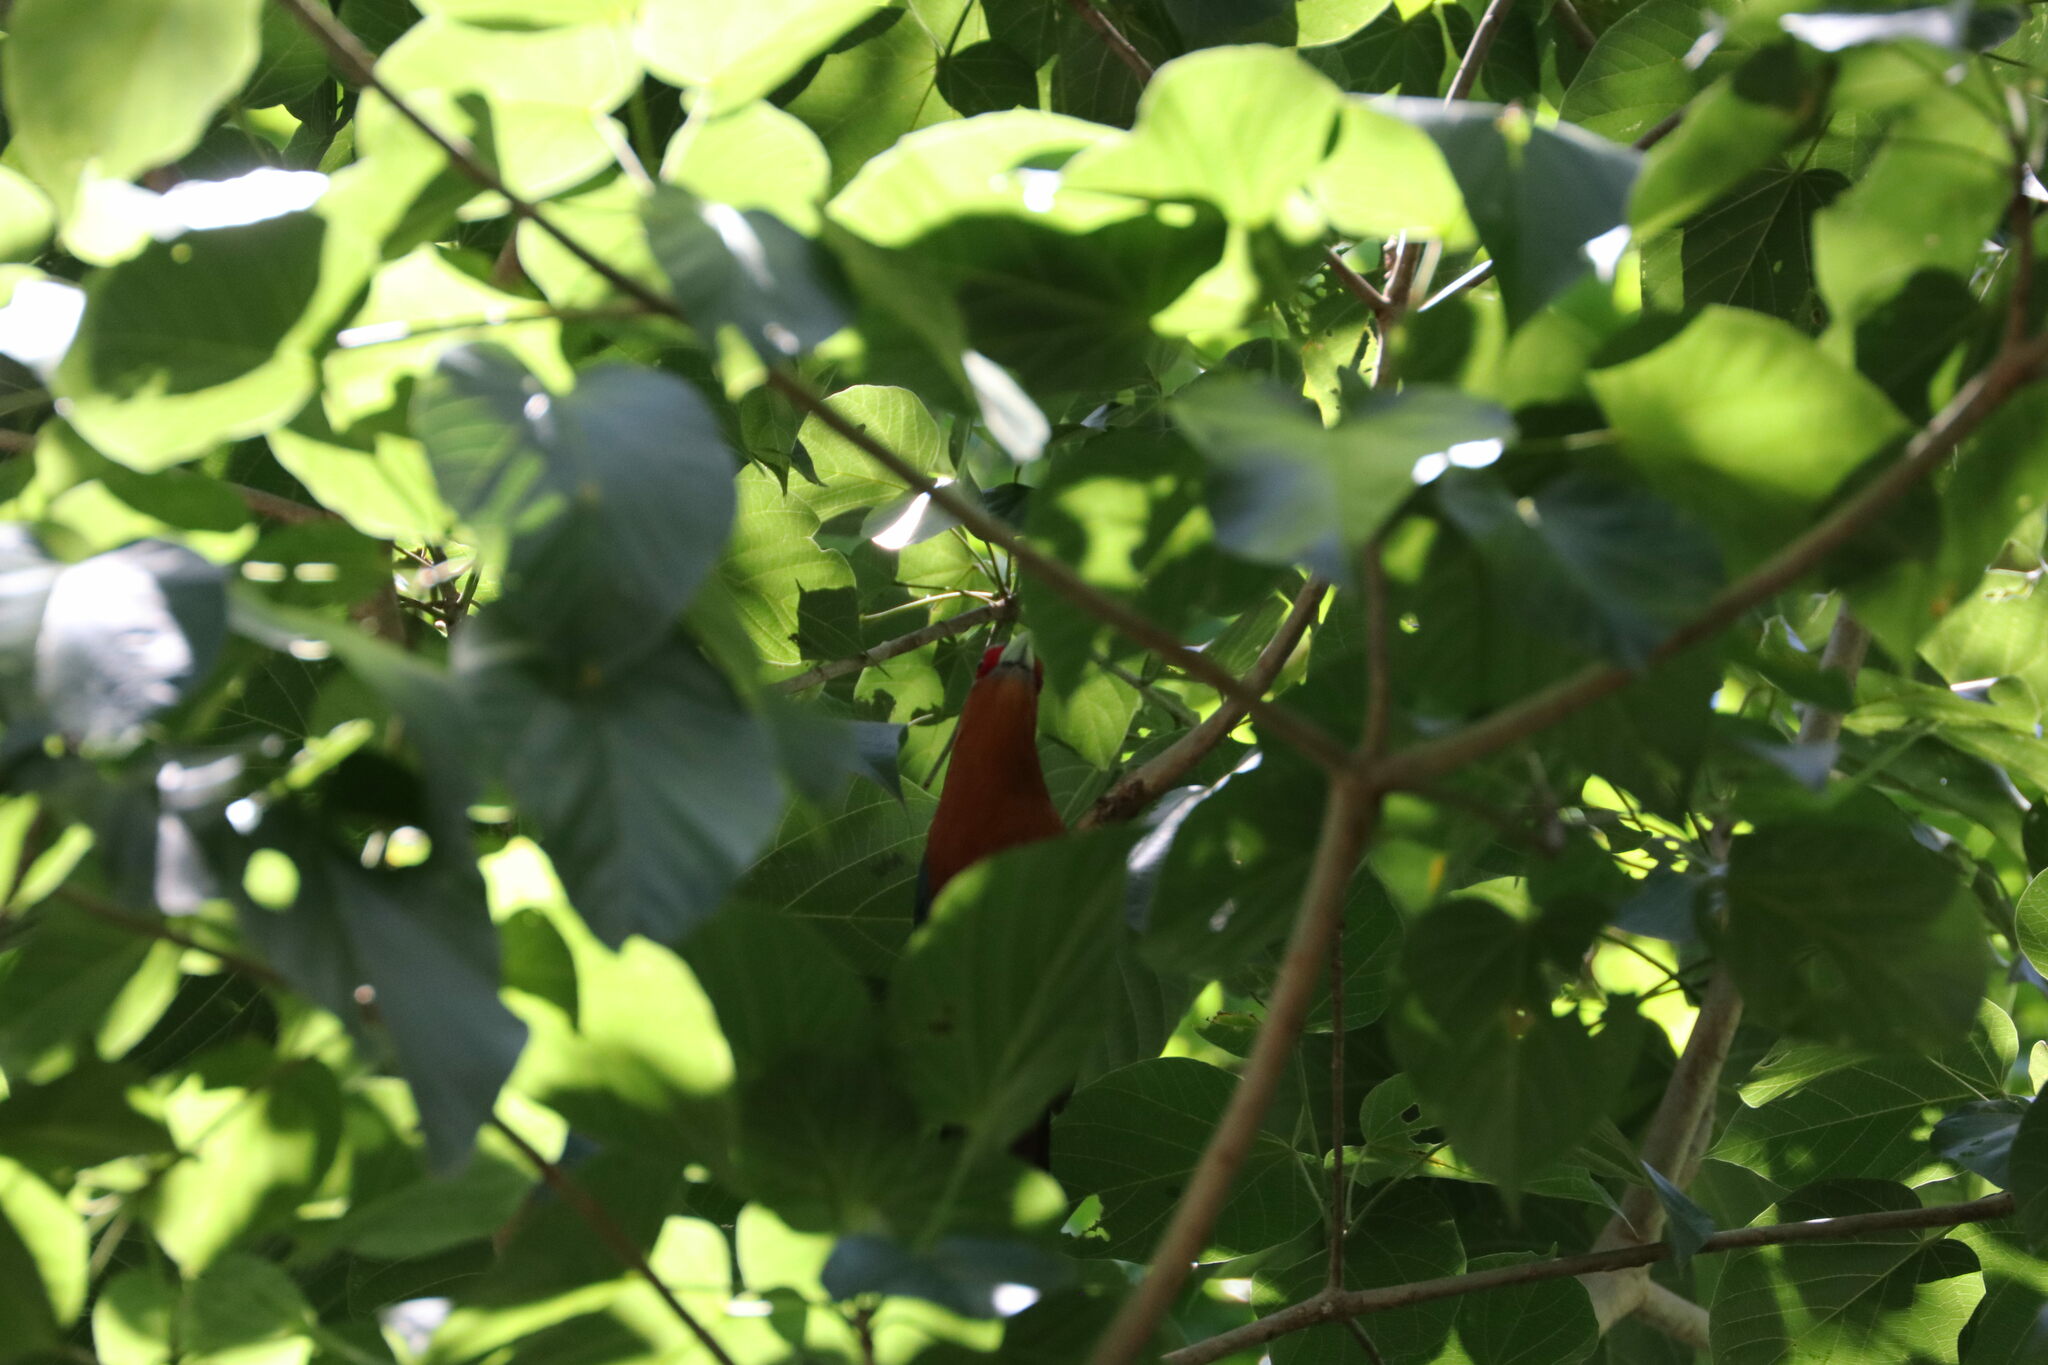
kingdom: Animalia
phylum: Chordata
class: Aves
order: Cuculiformes
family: Cuculidae
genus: Zanclostomus
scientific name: Zanclostomus curvirostris
